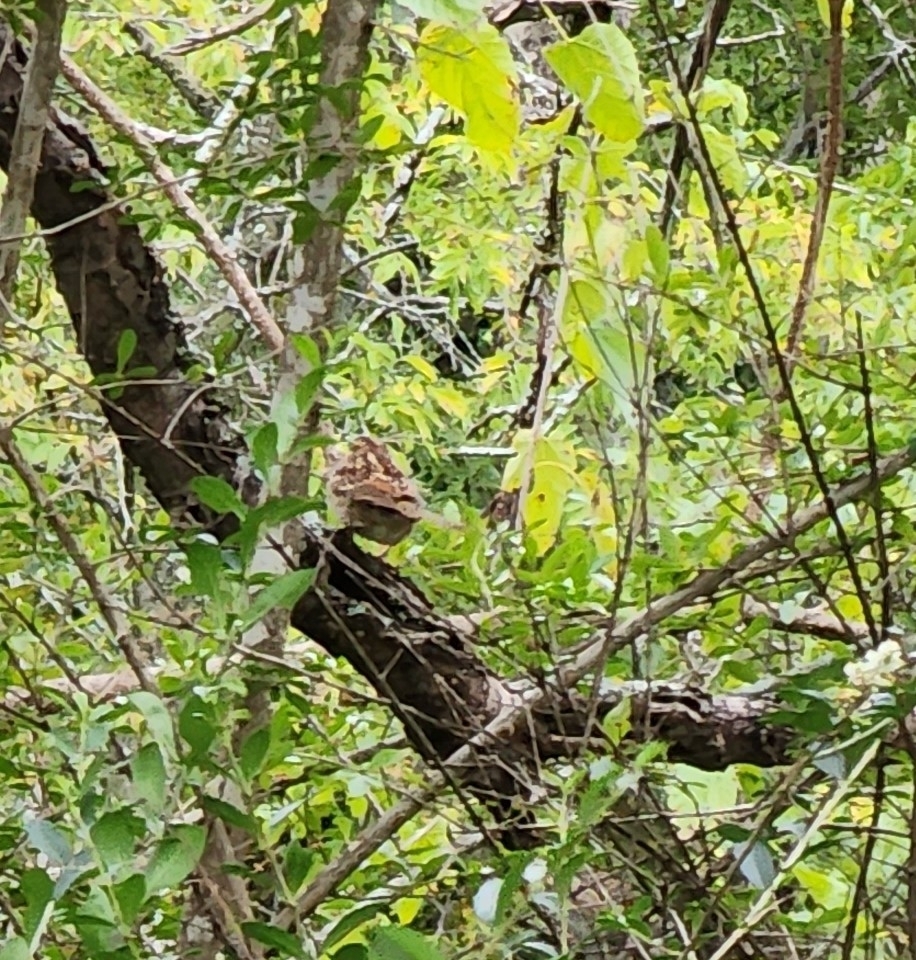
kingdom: Animalia
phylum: Chordata
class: Aves
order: Passeriformes
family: Passerellidae
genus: Zonotrichia
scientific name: Zonotrichia albicollis
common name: White-throated sparrow
